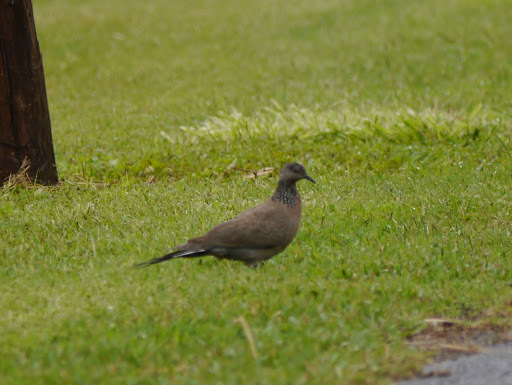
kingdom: Animalia
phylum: Chordata
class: Aves
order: Columbiformes
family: Columbidae
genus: Spilopelia
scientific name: Spilopelia chinensis
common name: Spotted dove
